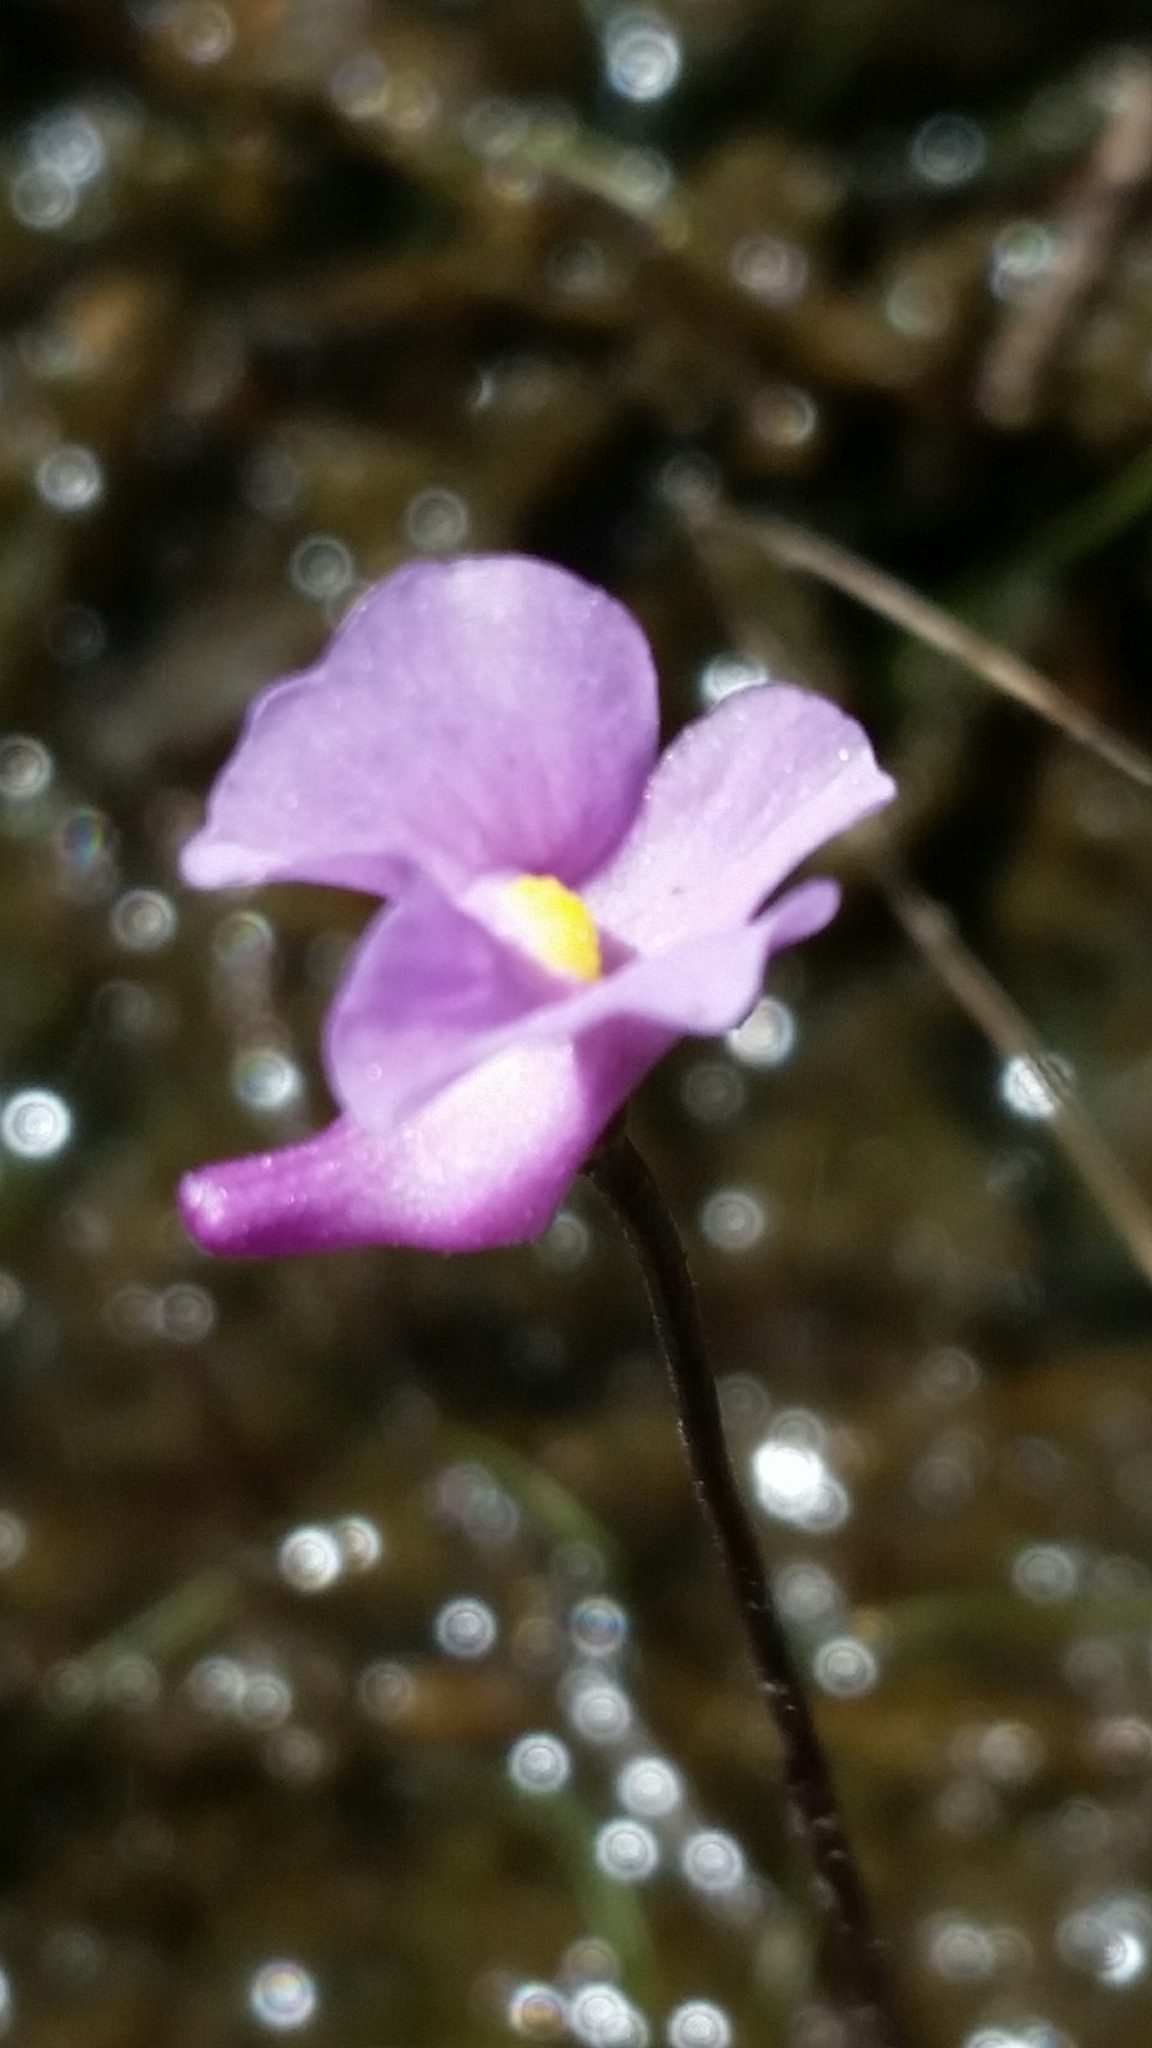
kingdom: Plantae
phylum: Tracheophyta
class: Magnoliopsida
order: Lamiales
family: Lentibulariaceae
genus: Utricularia
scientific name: Utricularia resupinata
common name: Northeastern bladderwort
